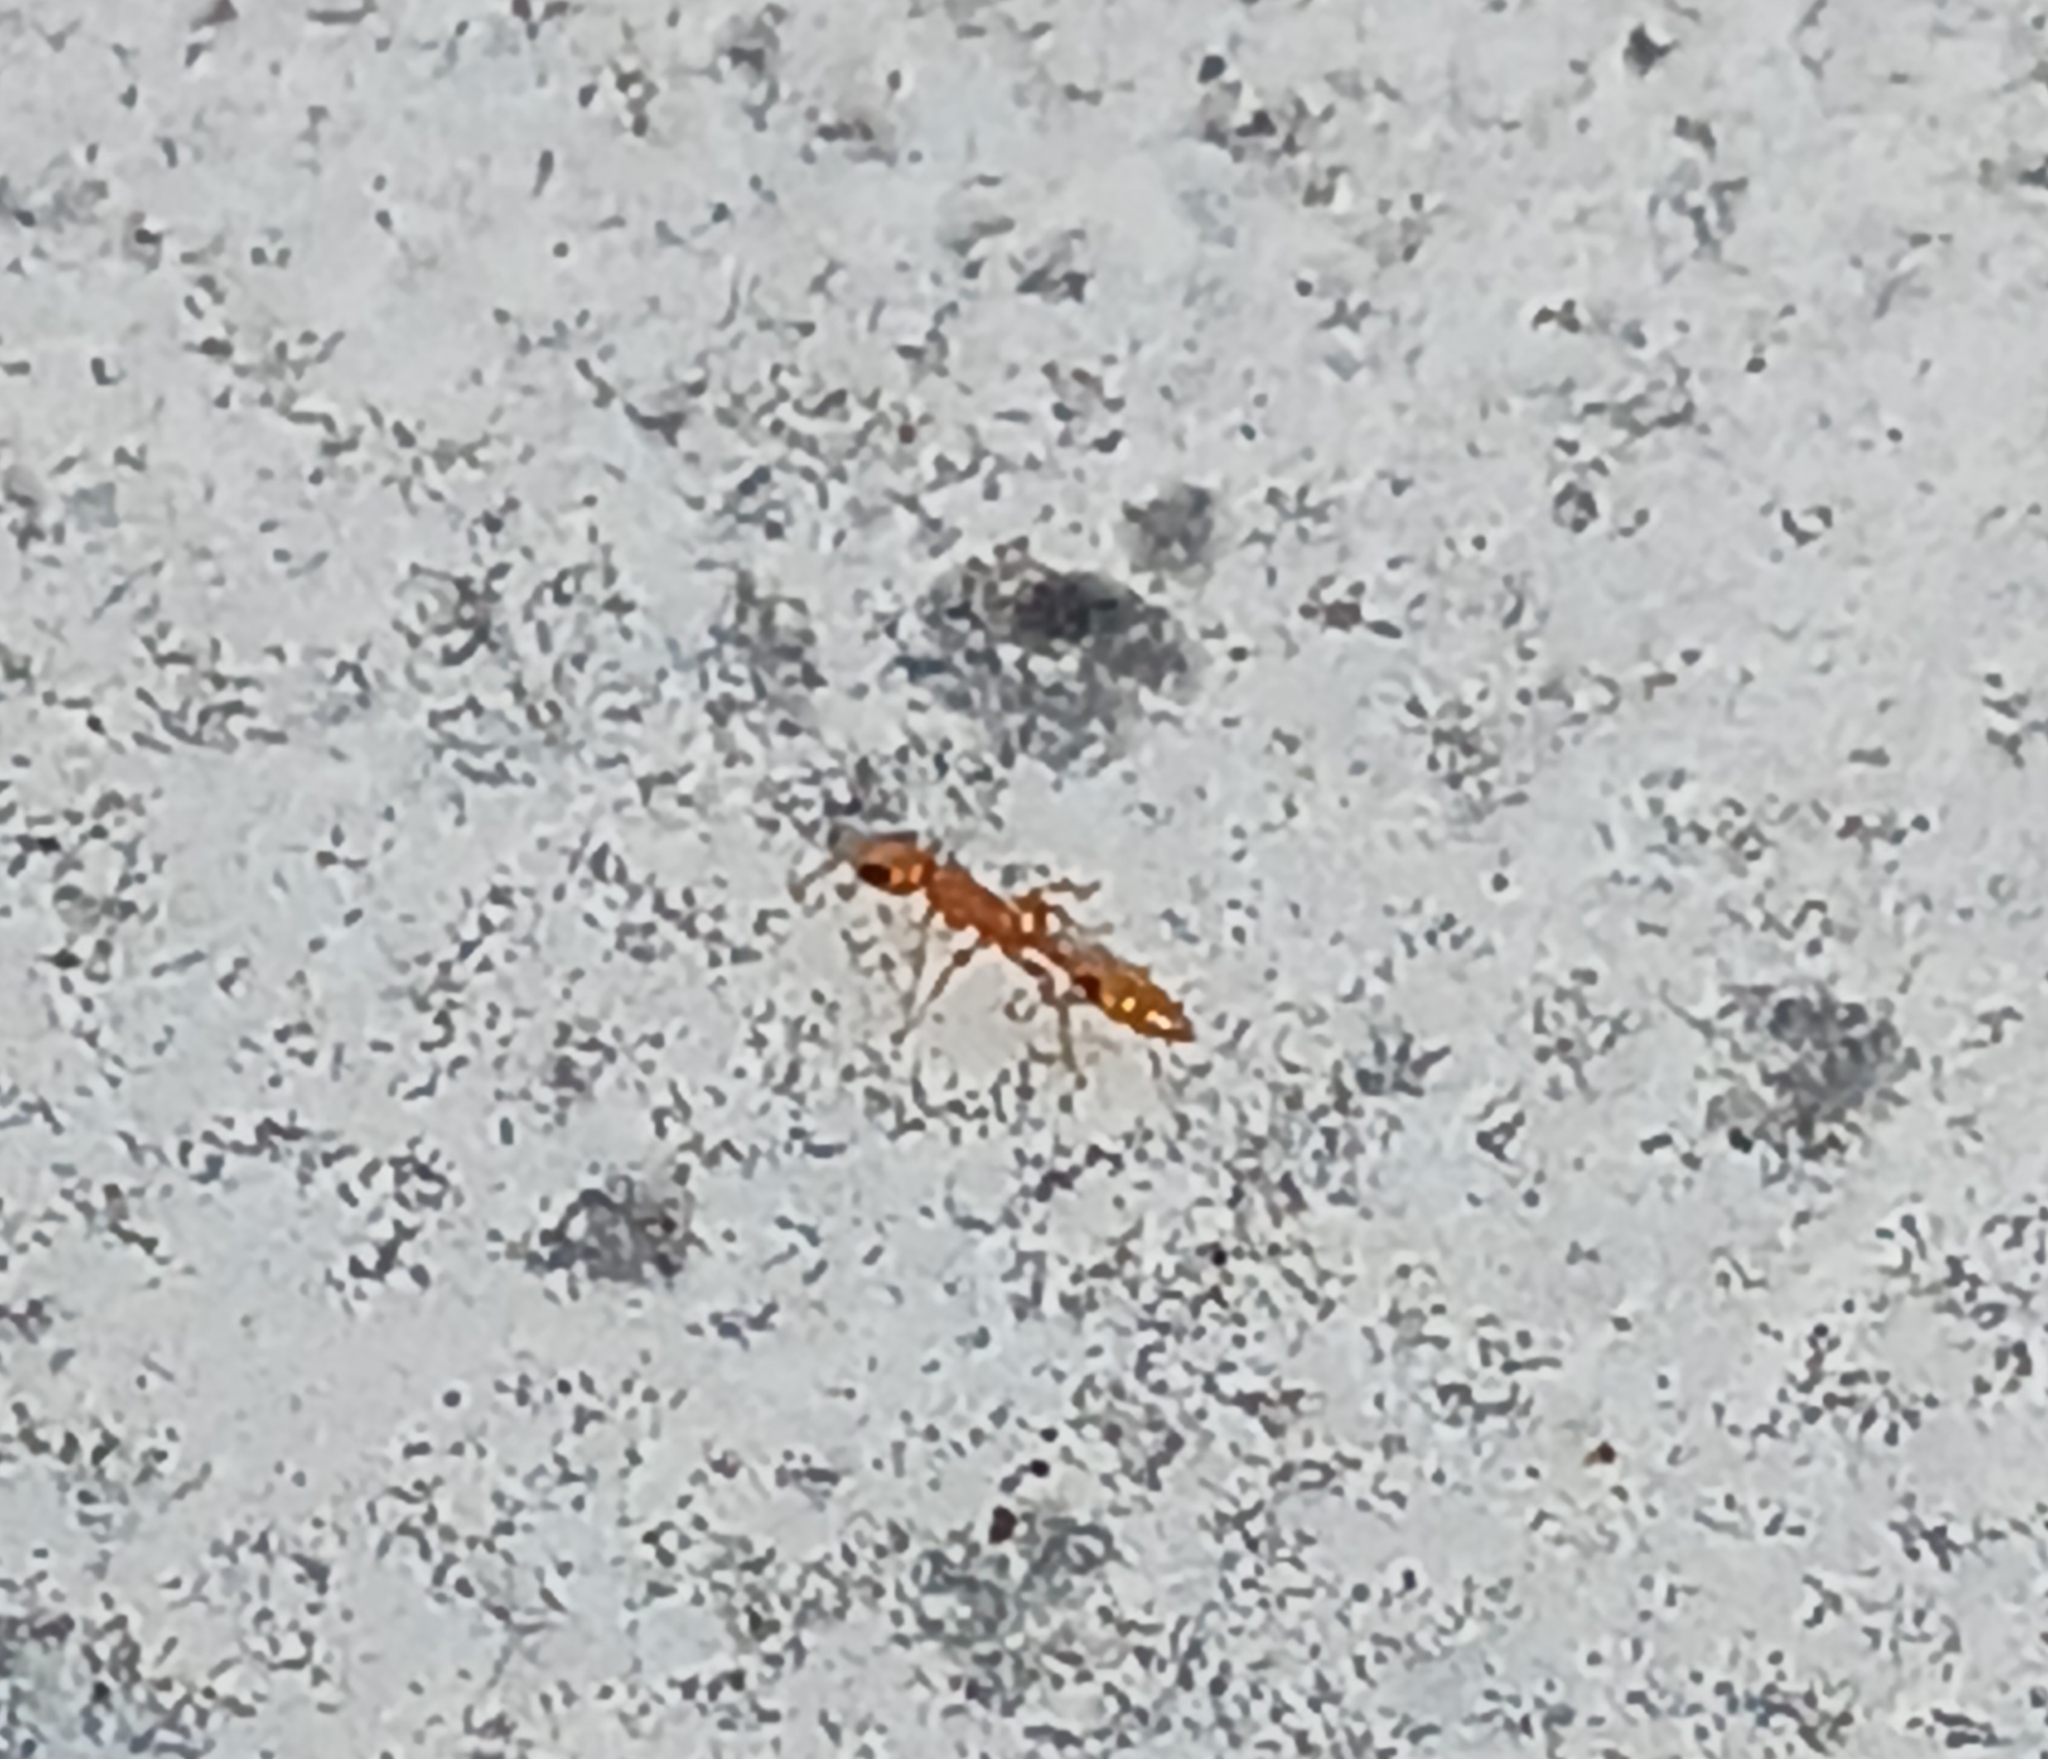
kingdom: Animalia
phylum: Arthropoda
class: Insecta
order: Hymenoptera
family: Formicidae
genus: Pseudomyrmex
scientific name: Pseudomyrmex simplex
